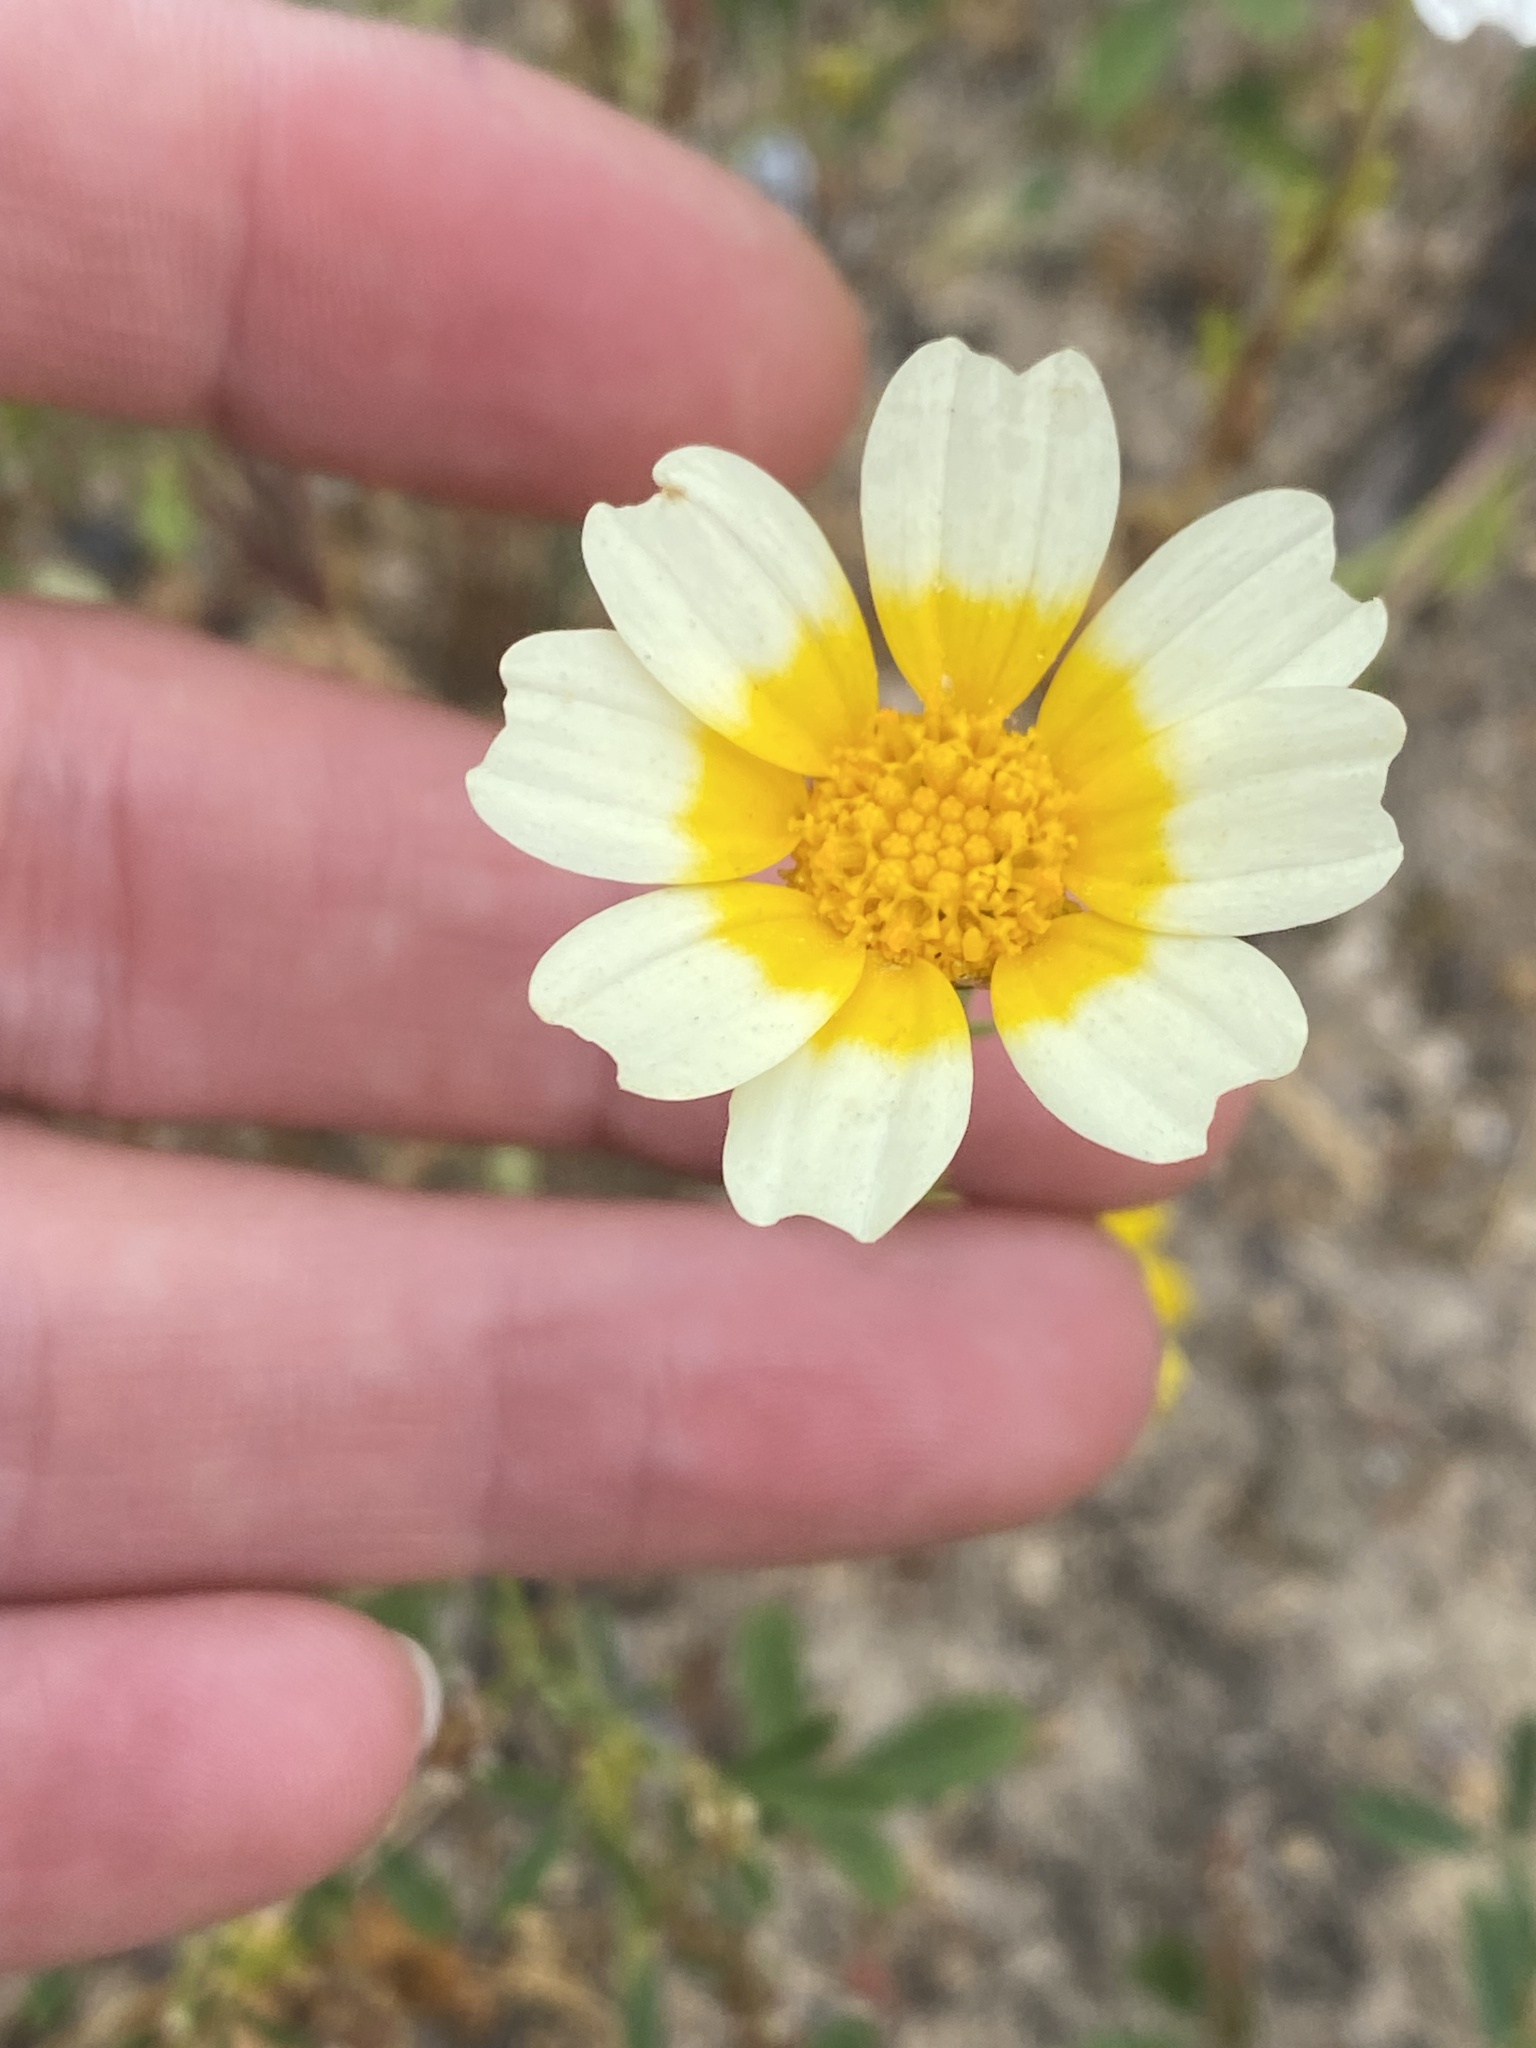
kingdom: Plantae
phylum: Tracheophyta
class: Magnoliopsida
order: Asterales
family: Asteraceae
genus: Glebionis
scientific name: Glebionis coronaria
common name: Crowndaisy
